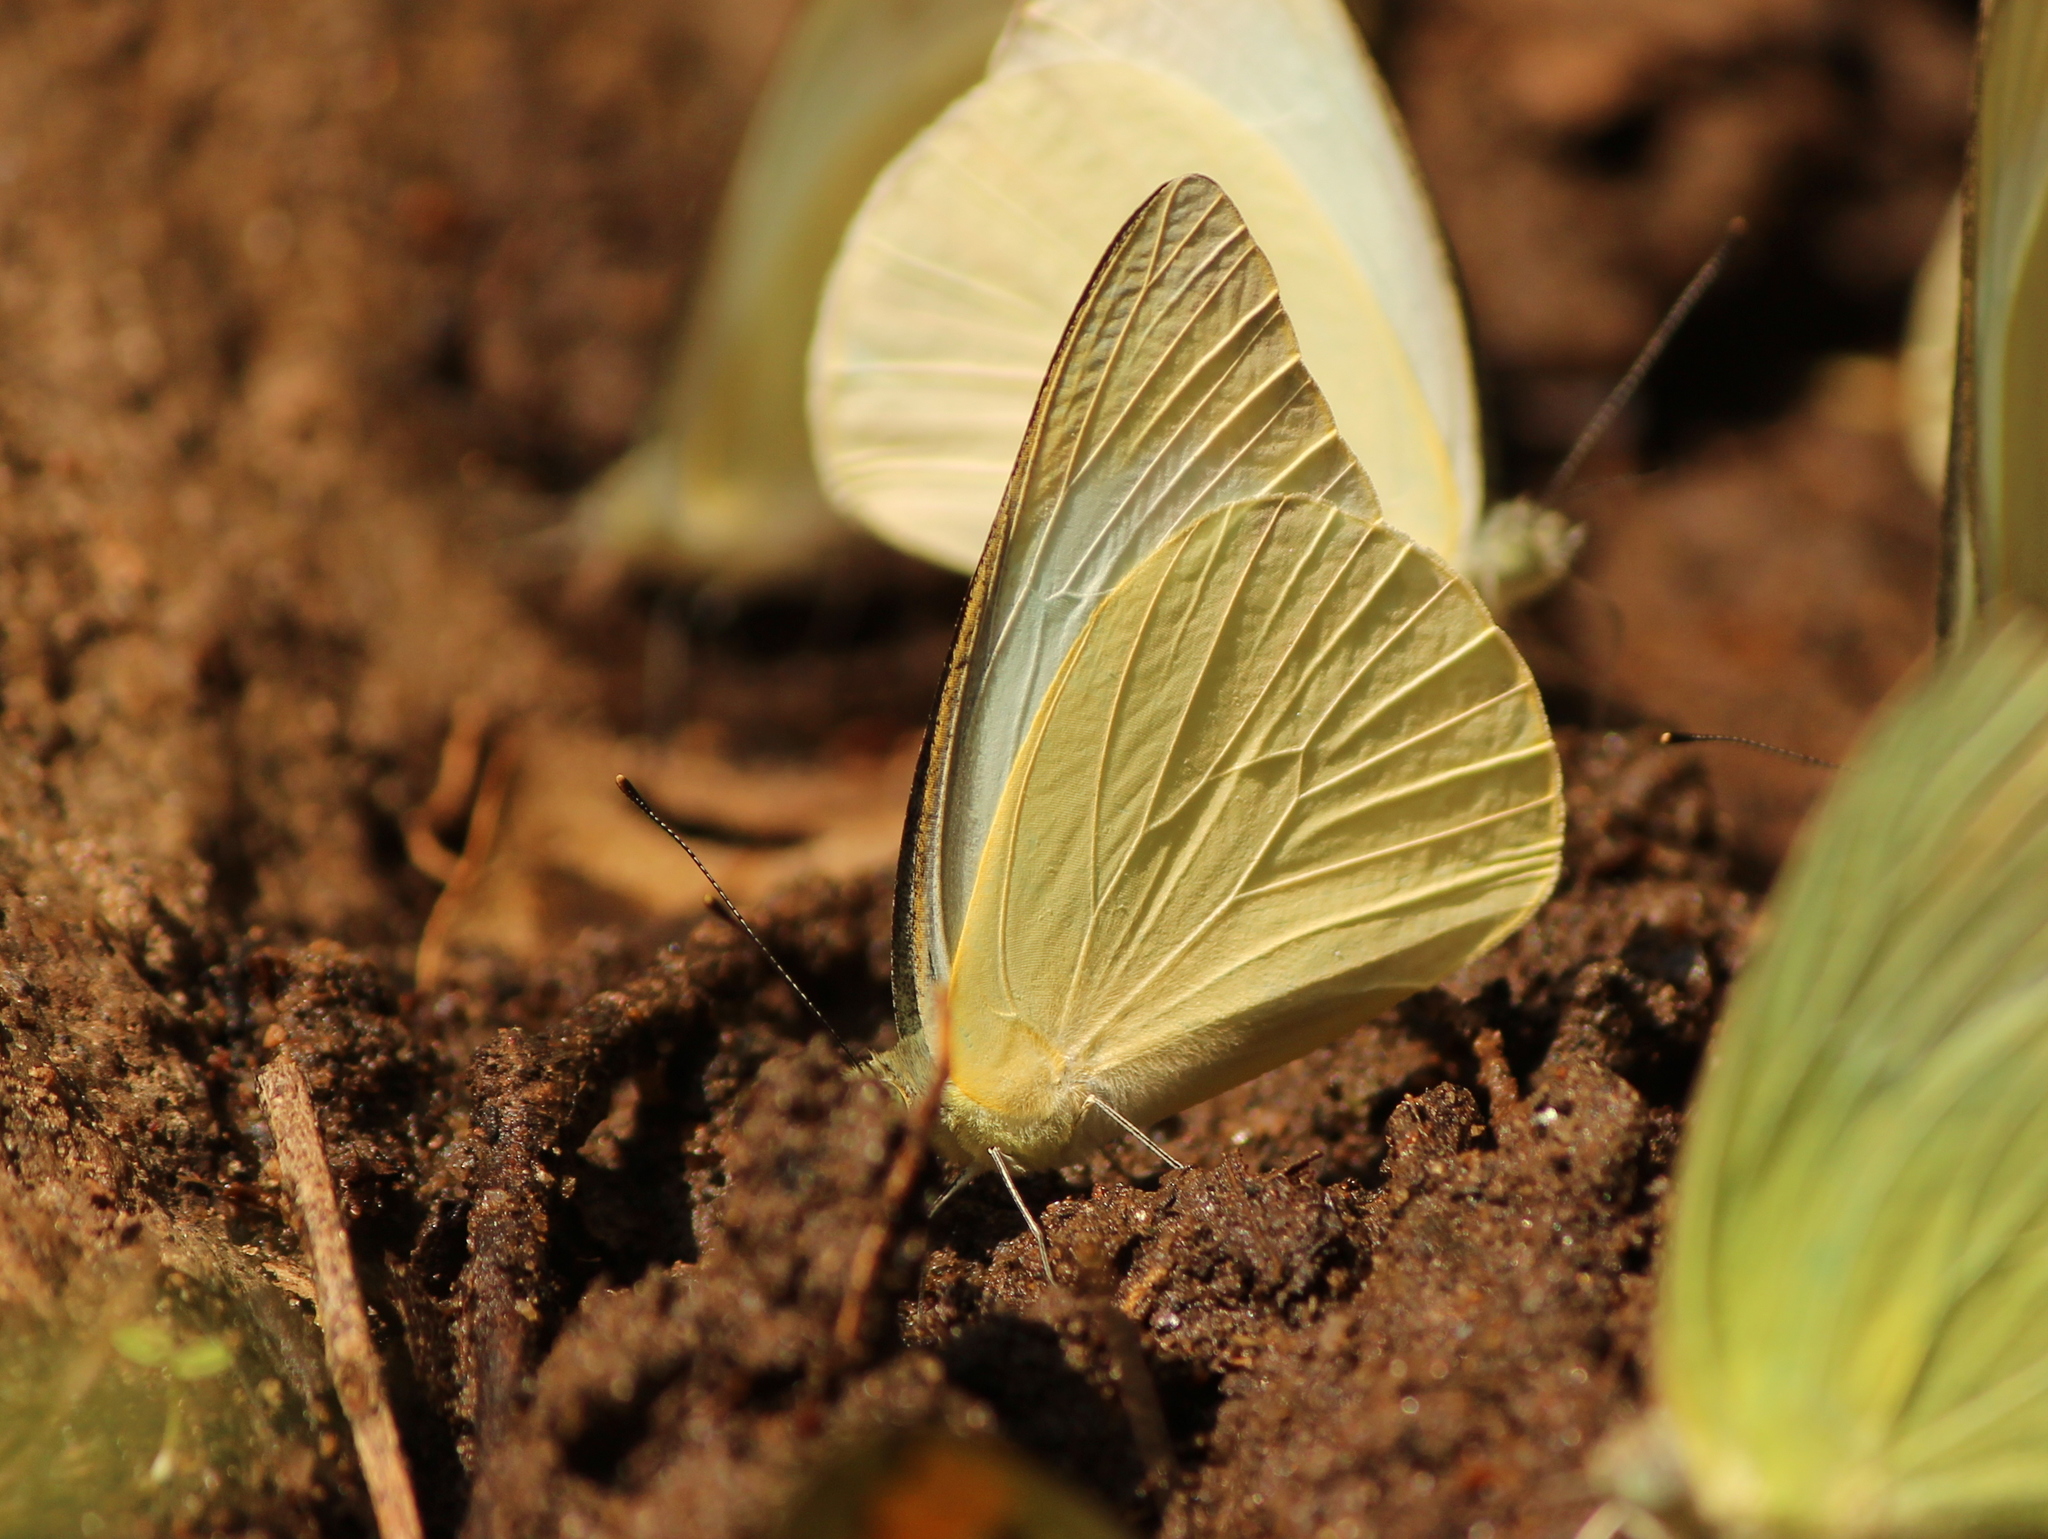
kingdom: Animalia
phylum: Arthropoda
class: Insecta
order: Lepidoptera
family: Pieridae
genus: Appias
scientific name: Appias albina
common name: Common albatross
